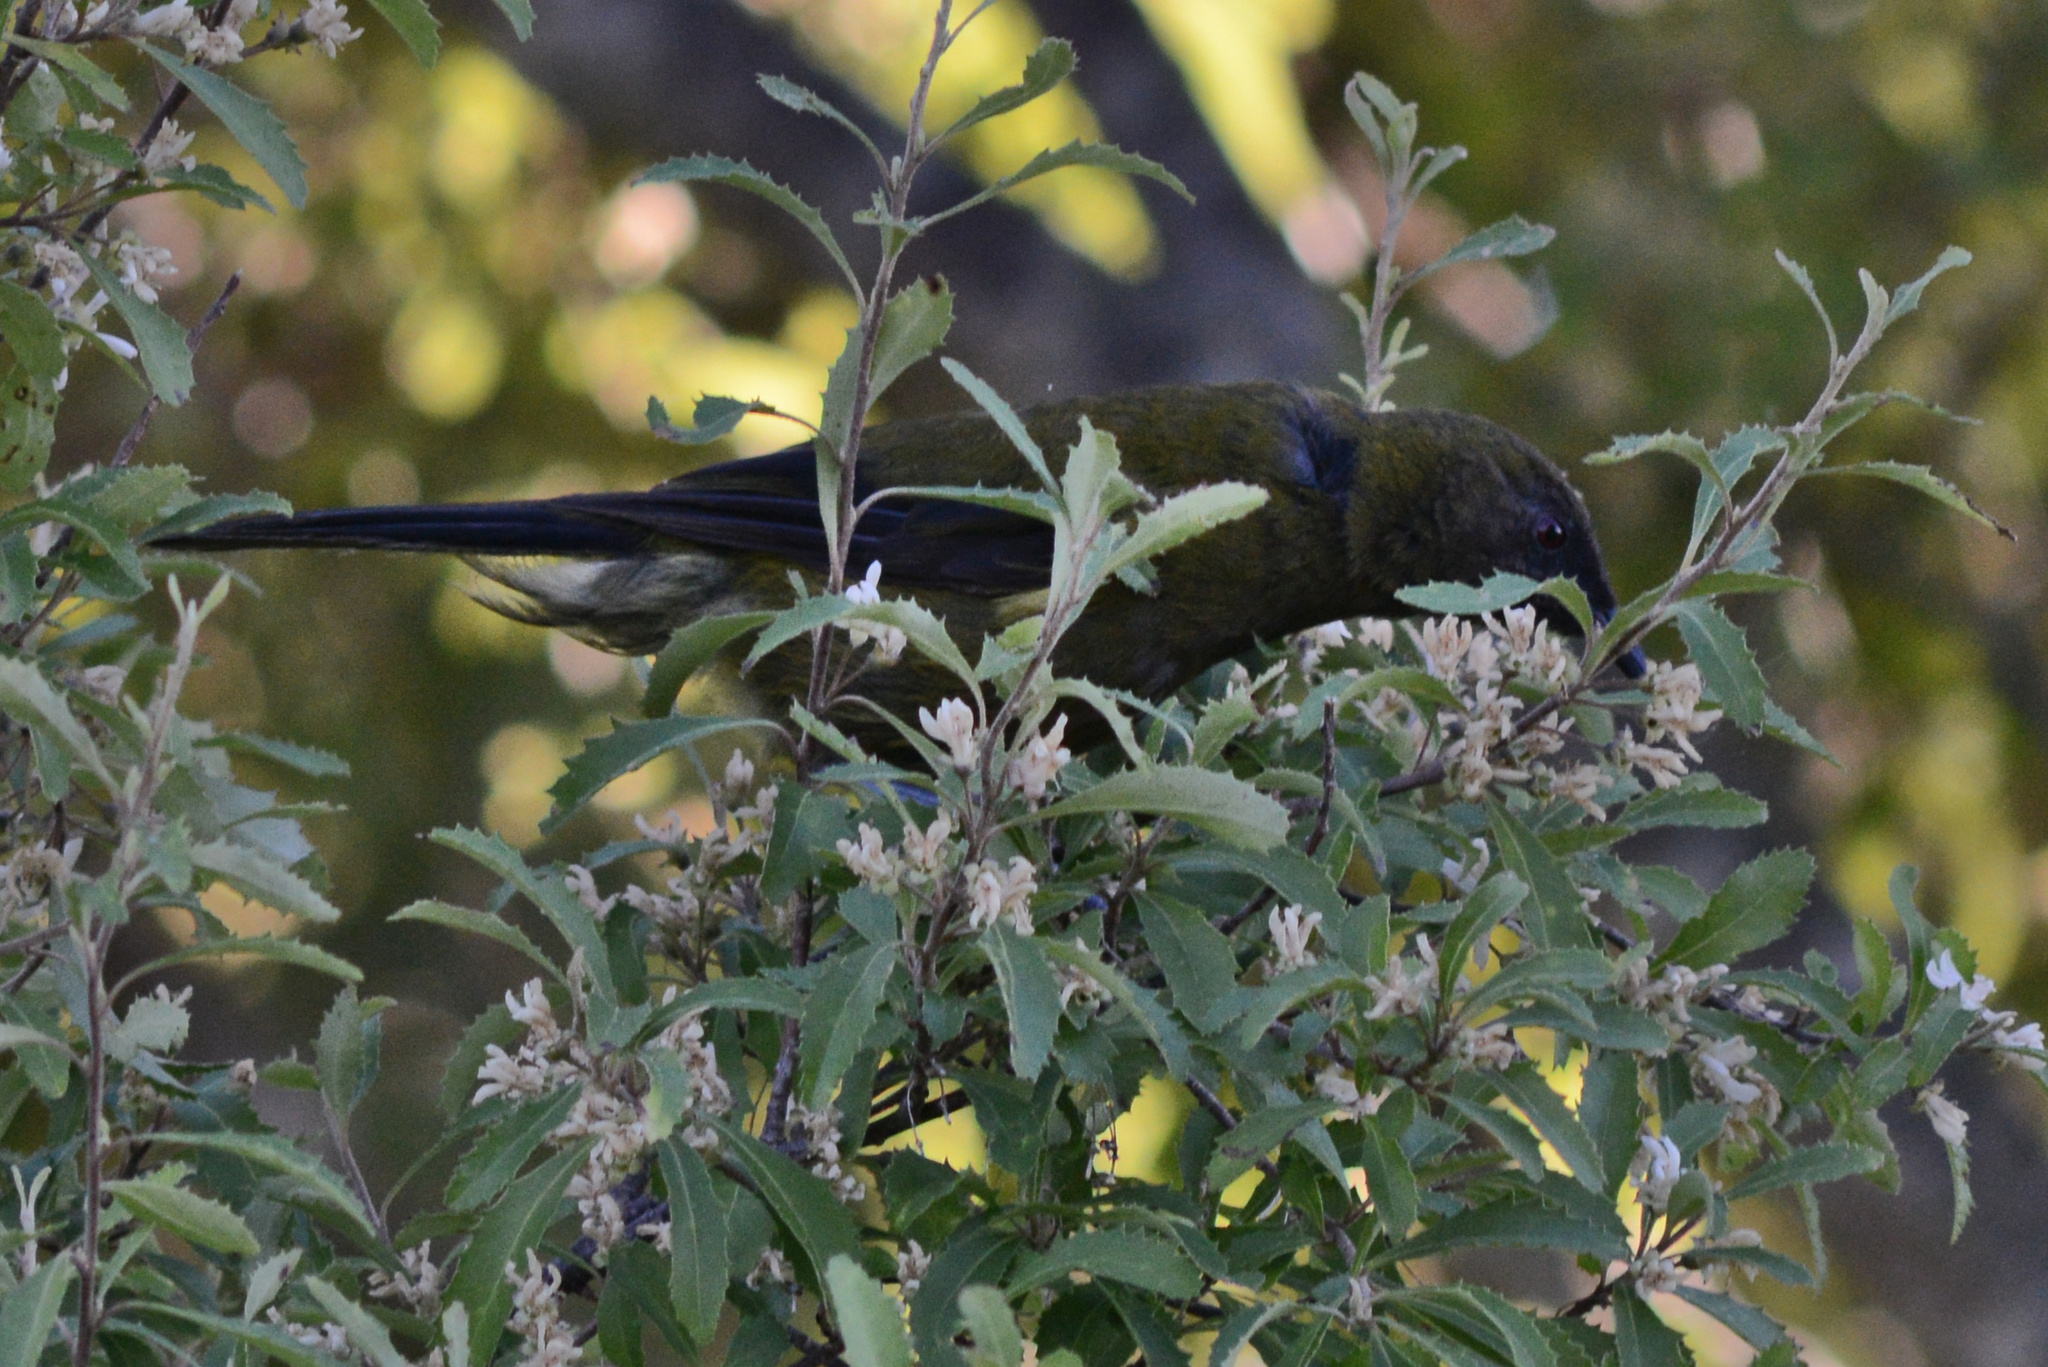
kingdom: Animalia
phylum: Chordata
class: Aves
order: Passeriformes
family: Meliphagidae
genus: Anthornis
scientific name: Anthornis melanura
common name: New zealand bellbird
